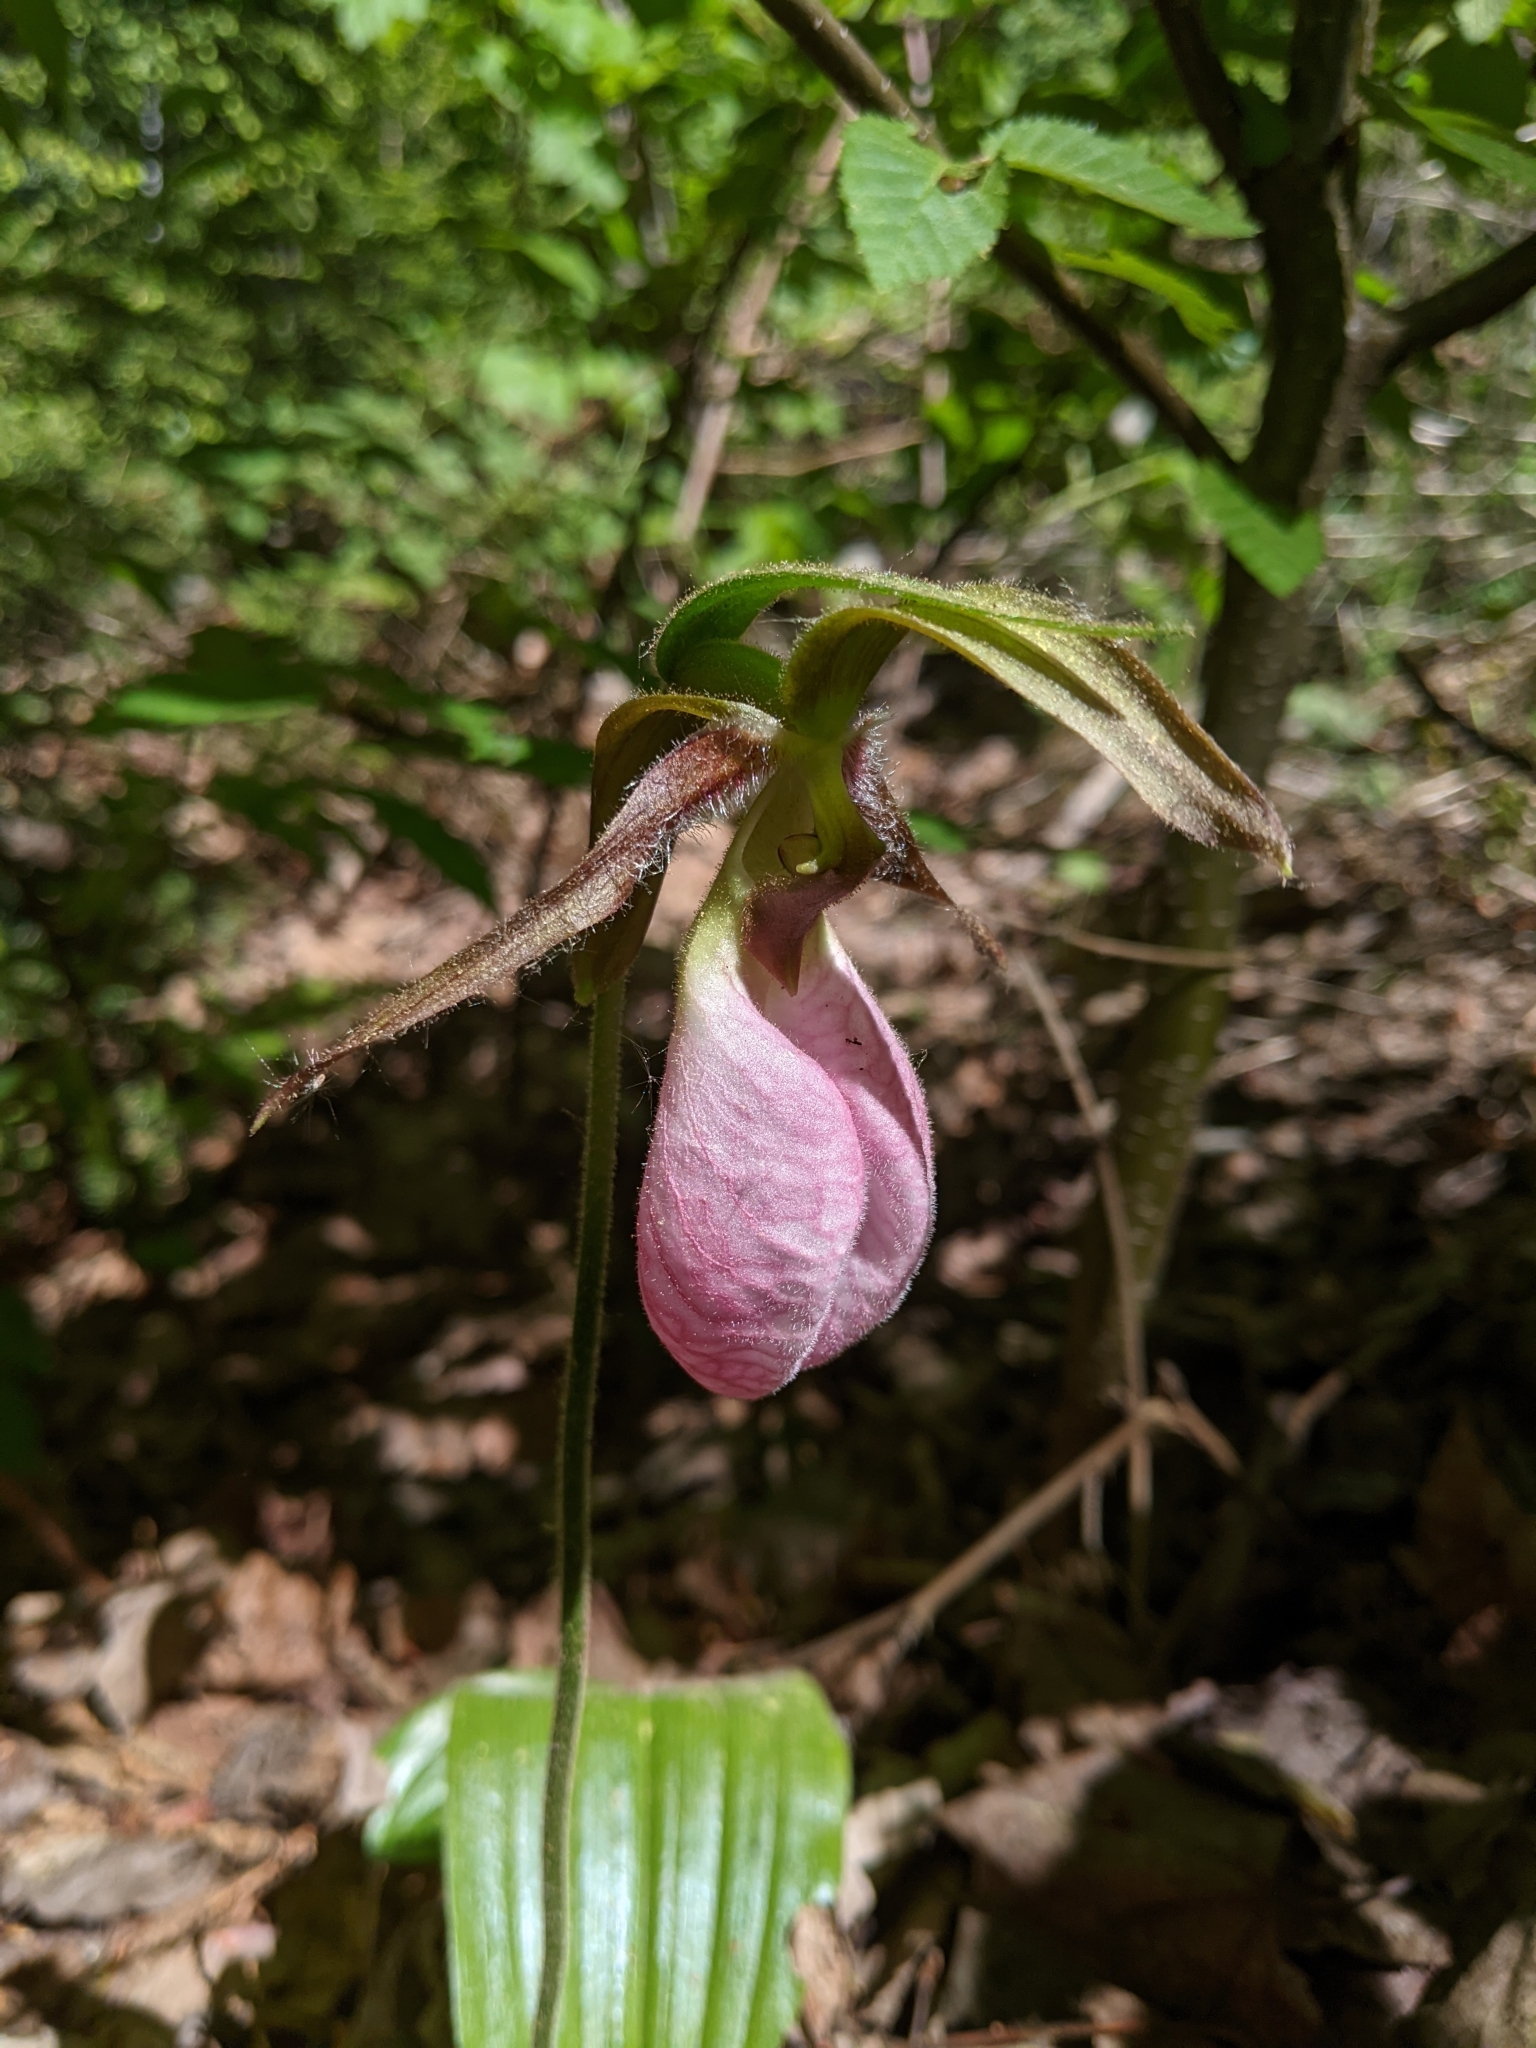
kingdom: Plantae
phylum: Tracheophyta
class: Liliopsida
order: Asparagales
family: Orchidaceae
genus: Cypripedium
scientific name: Cypripedium acaule
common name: Pink lady's-slipper
